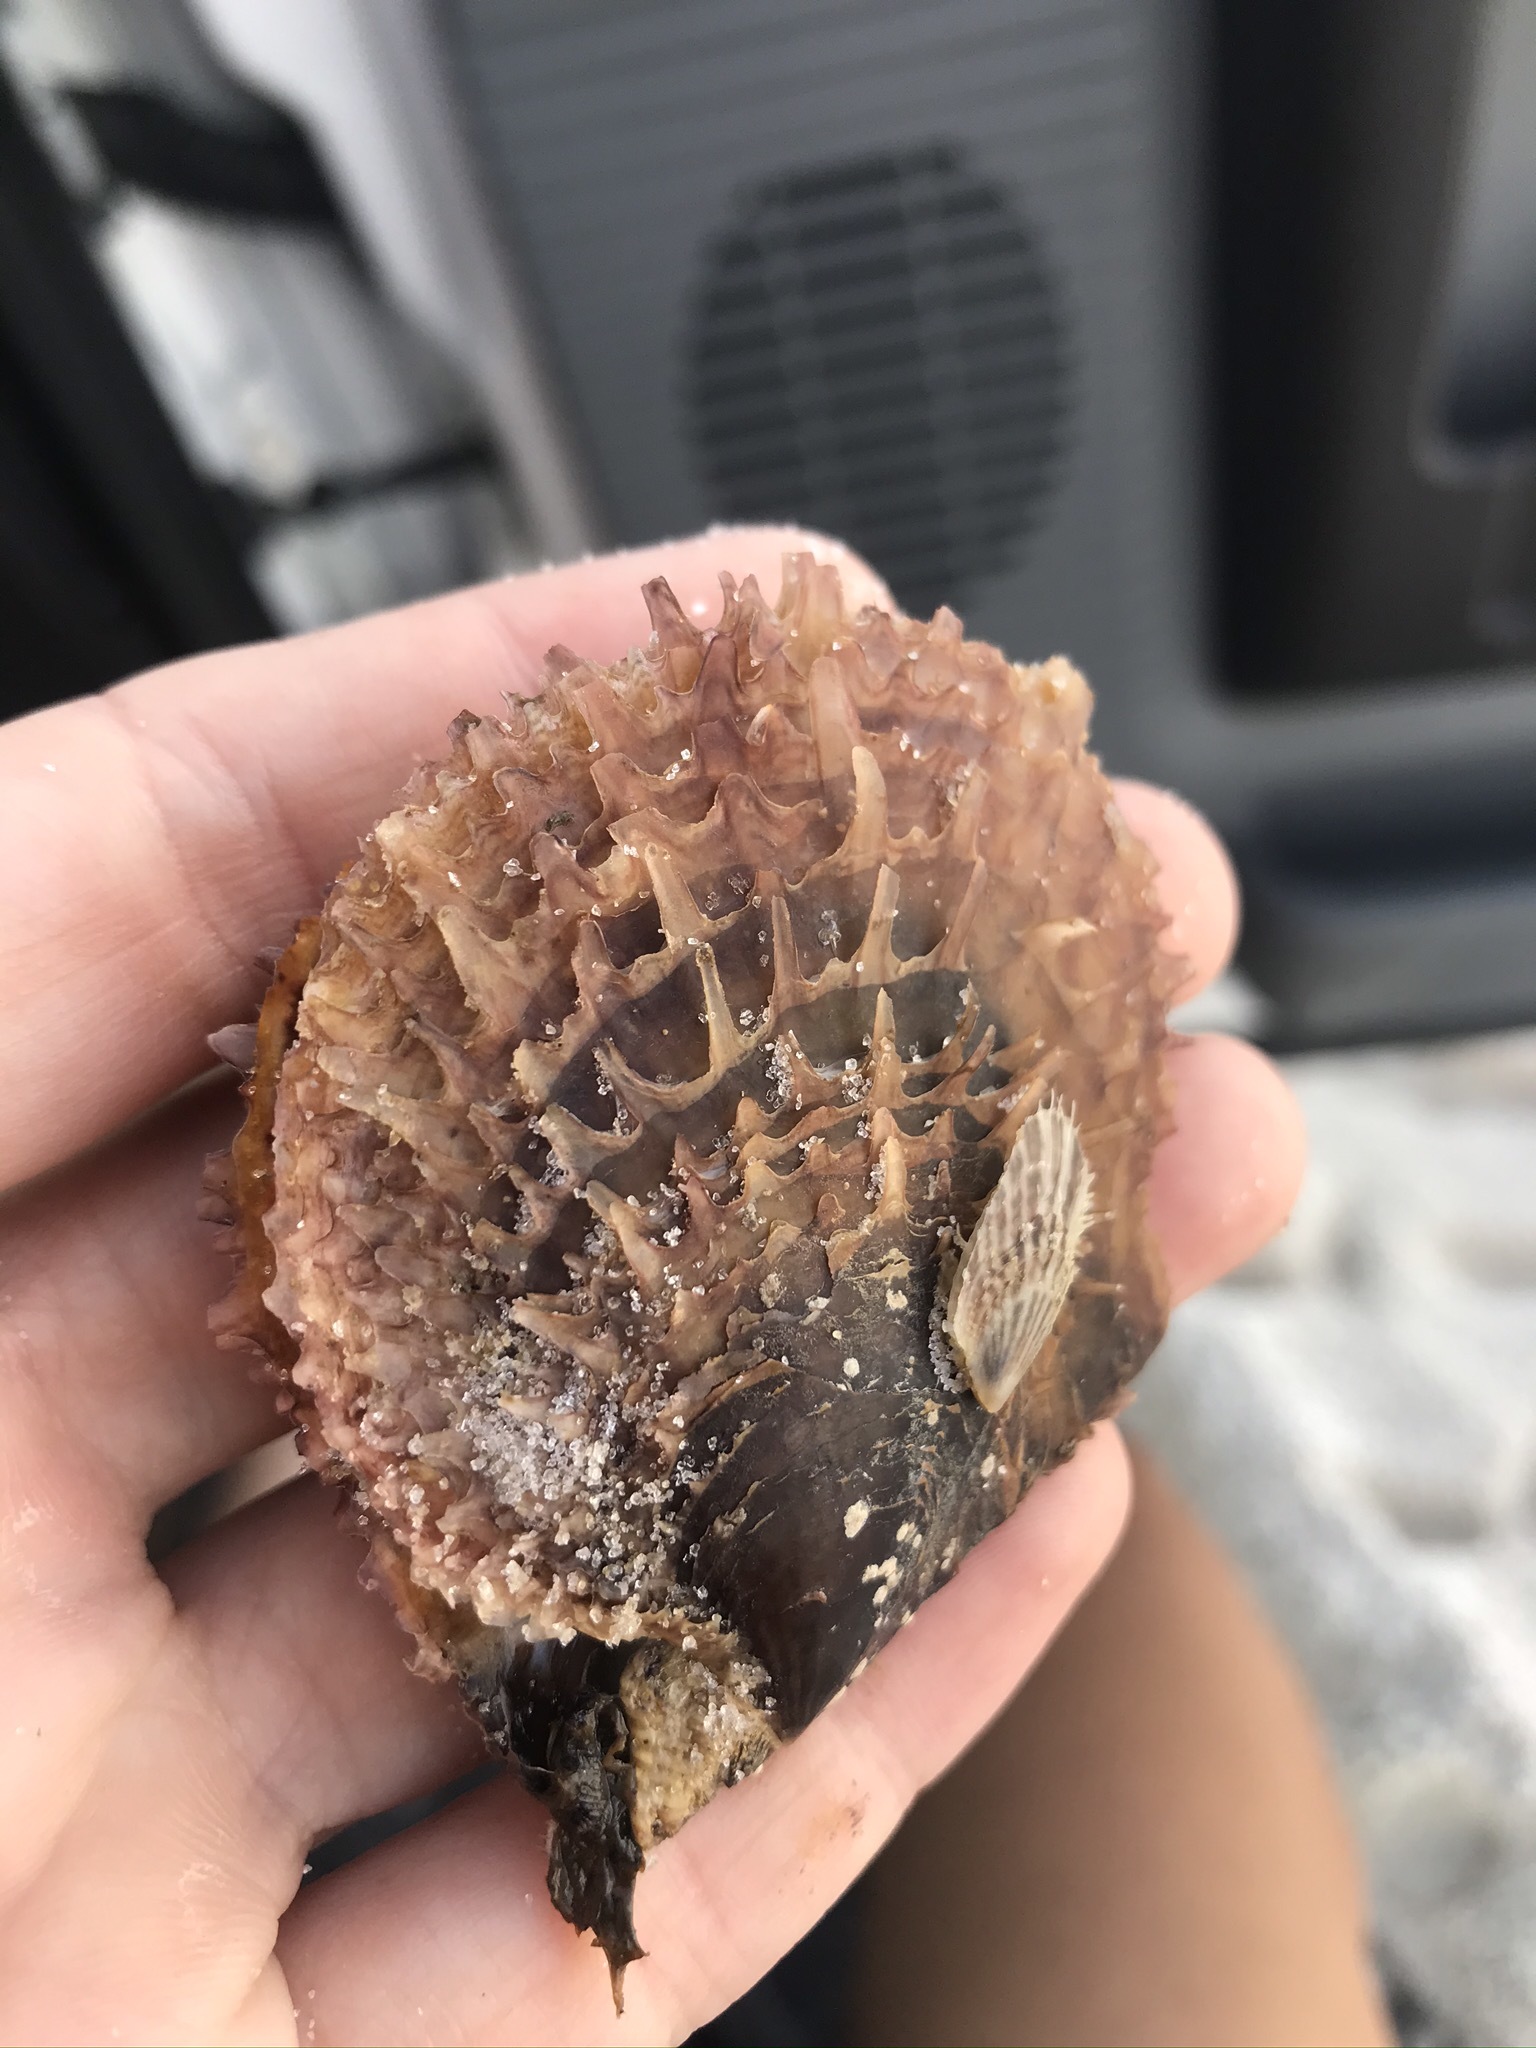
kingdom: Animalia
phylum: Mollusca
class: Bivalvia
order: Ostreida
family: Margaritidae
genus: Pinctada
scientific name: Pinctada imbricata
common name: Atlantic pearl-oyster
